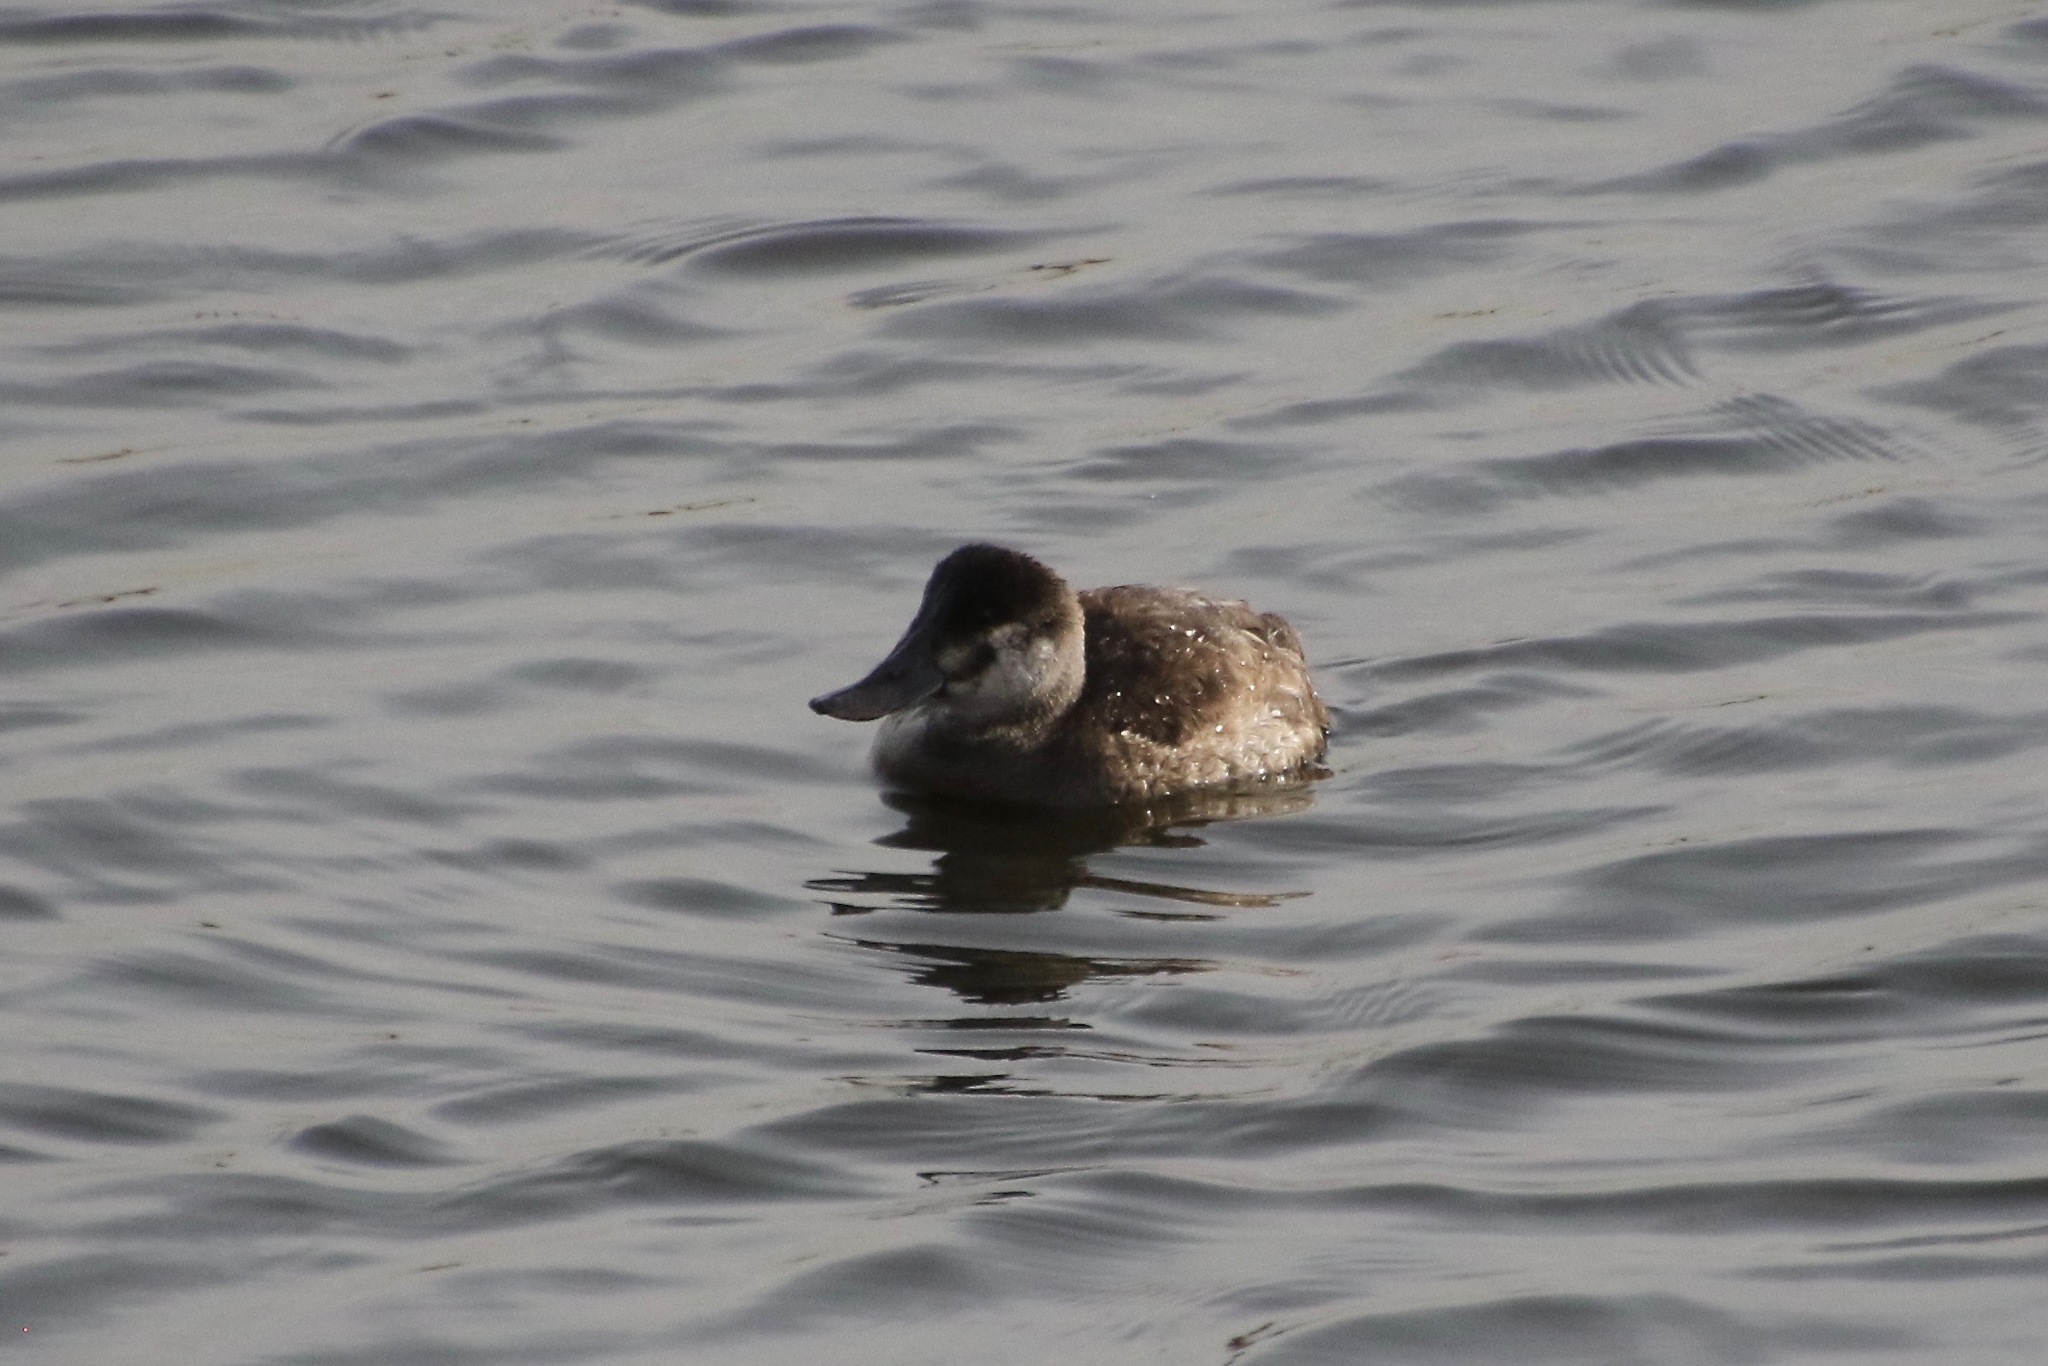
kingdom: Animalia
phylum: Chordata
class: Aves
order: Anseriformes
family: Anatidae
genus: Oxyura
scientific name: Oxyura jamaicensis
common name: Ruddy duck
